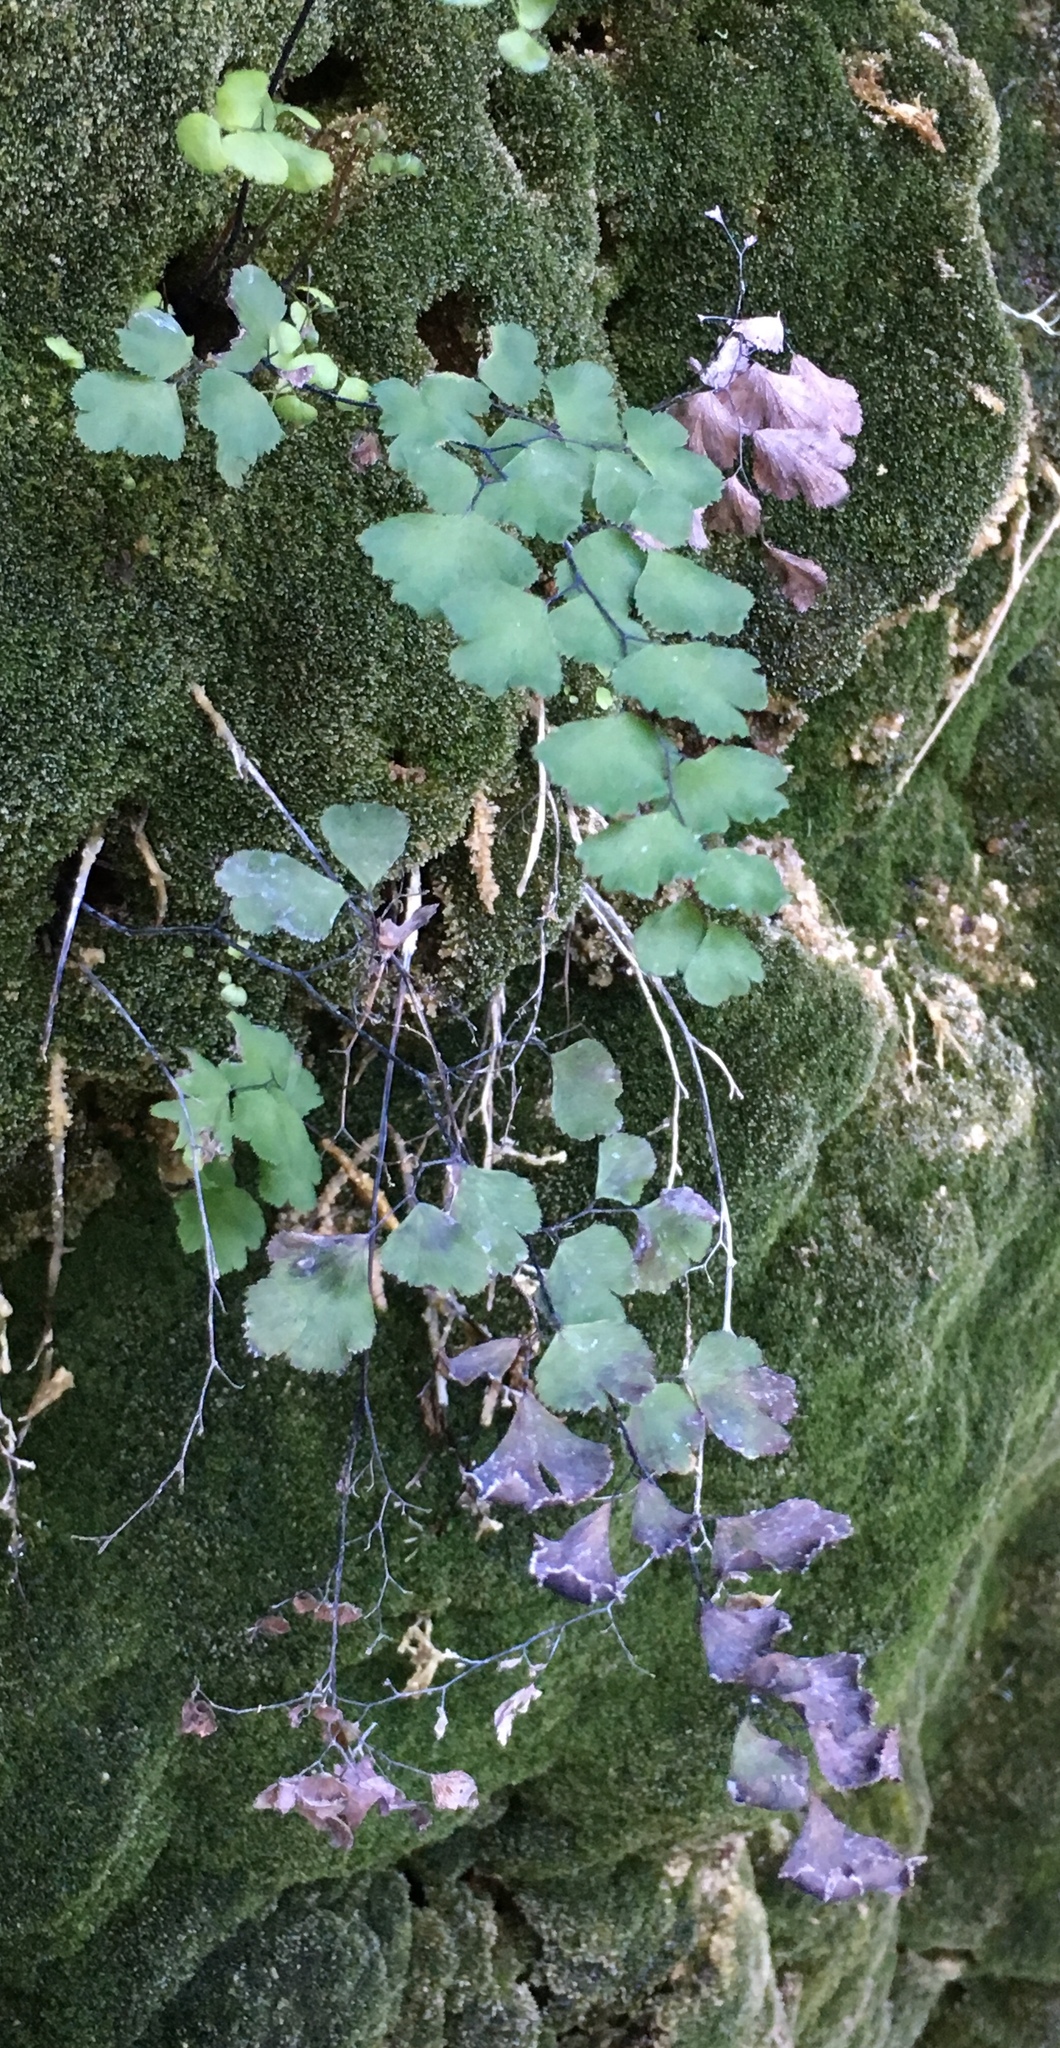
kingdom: Plantae
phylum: Tracheophyta
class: Polypodiopsida
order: Polypodiales
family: Pteridaceae
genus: Adiantum
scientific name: Adiantum jordanii
